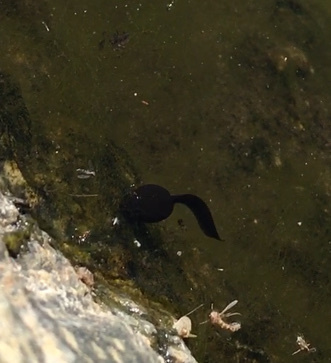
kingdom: Animalia
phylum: Chordata
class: Amphibia
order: Anura
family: Bufonidae
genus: Rhinella
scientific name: Rhinella arunco
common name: Concepcion toad
